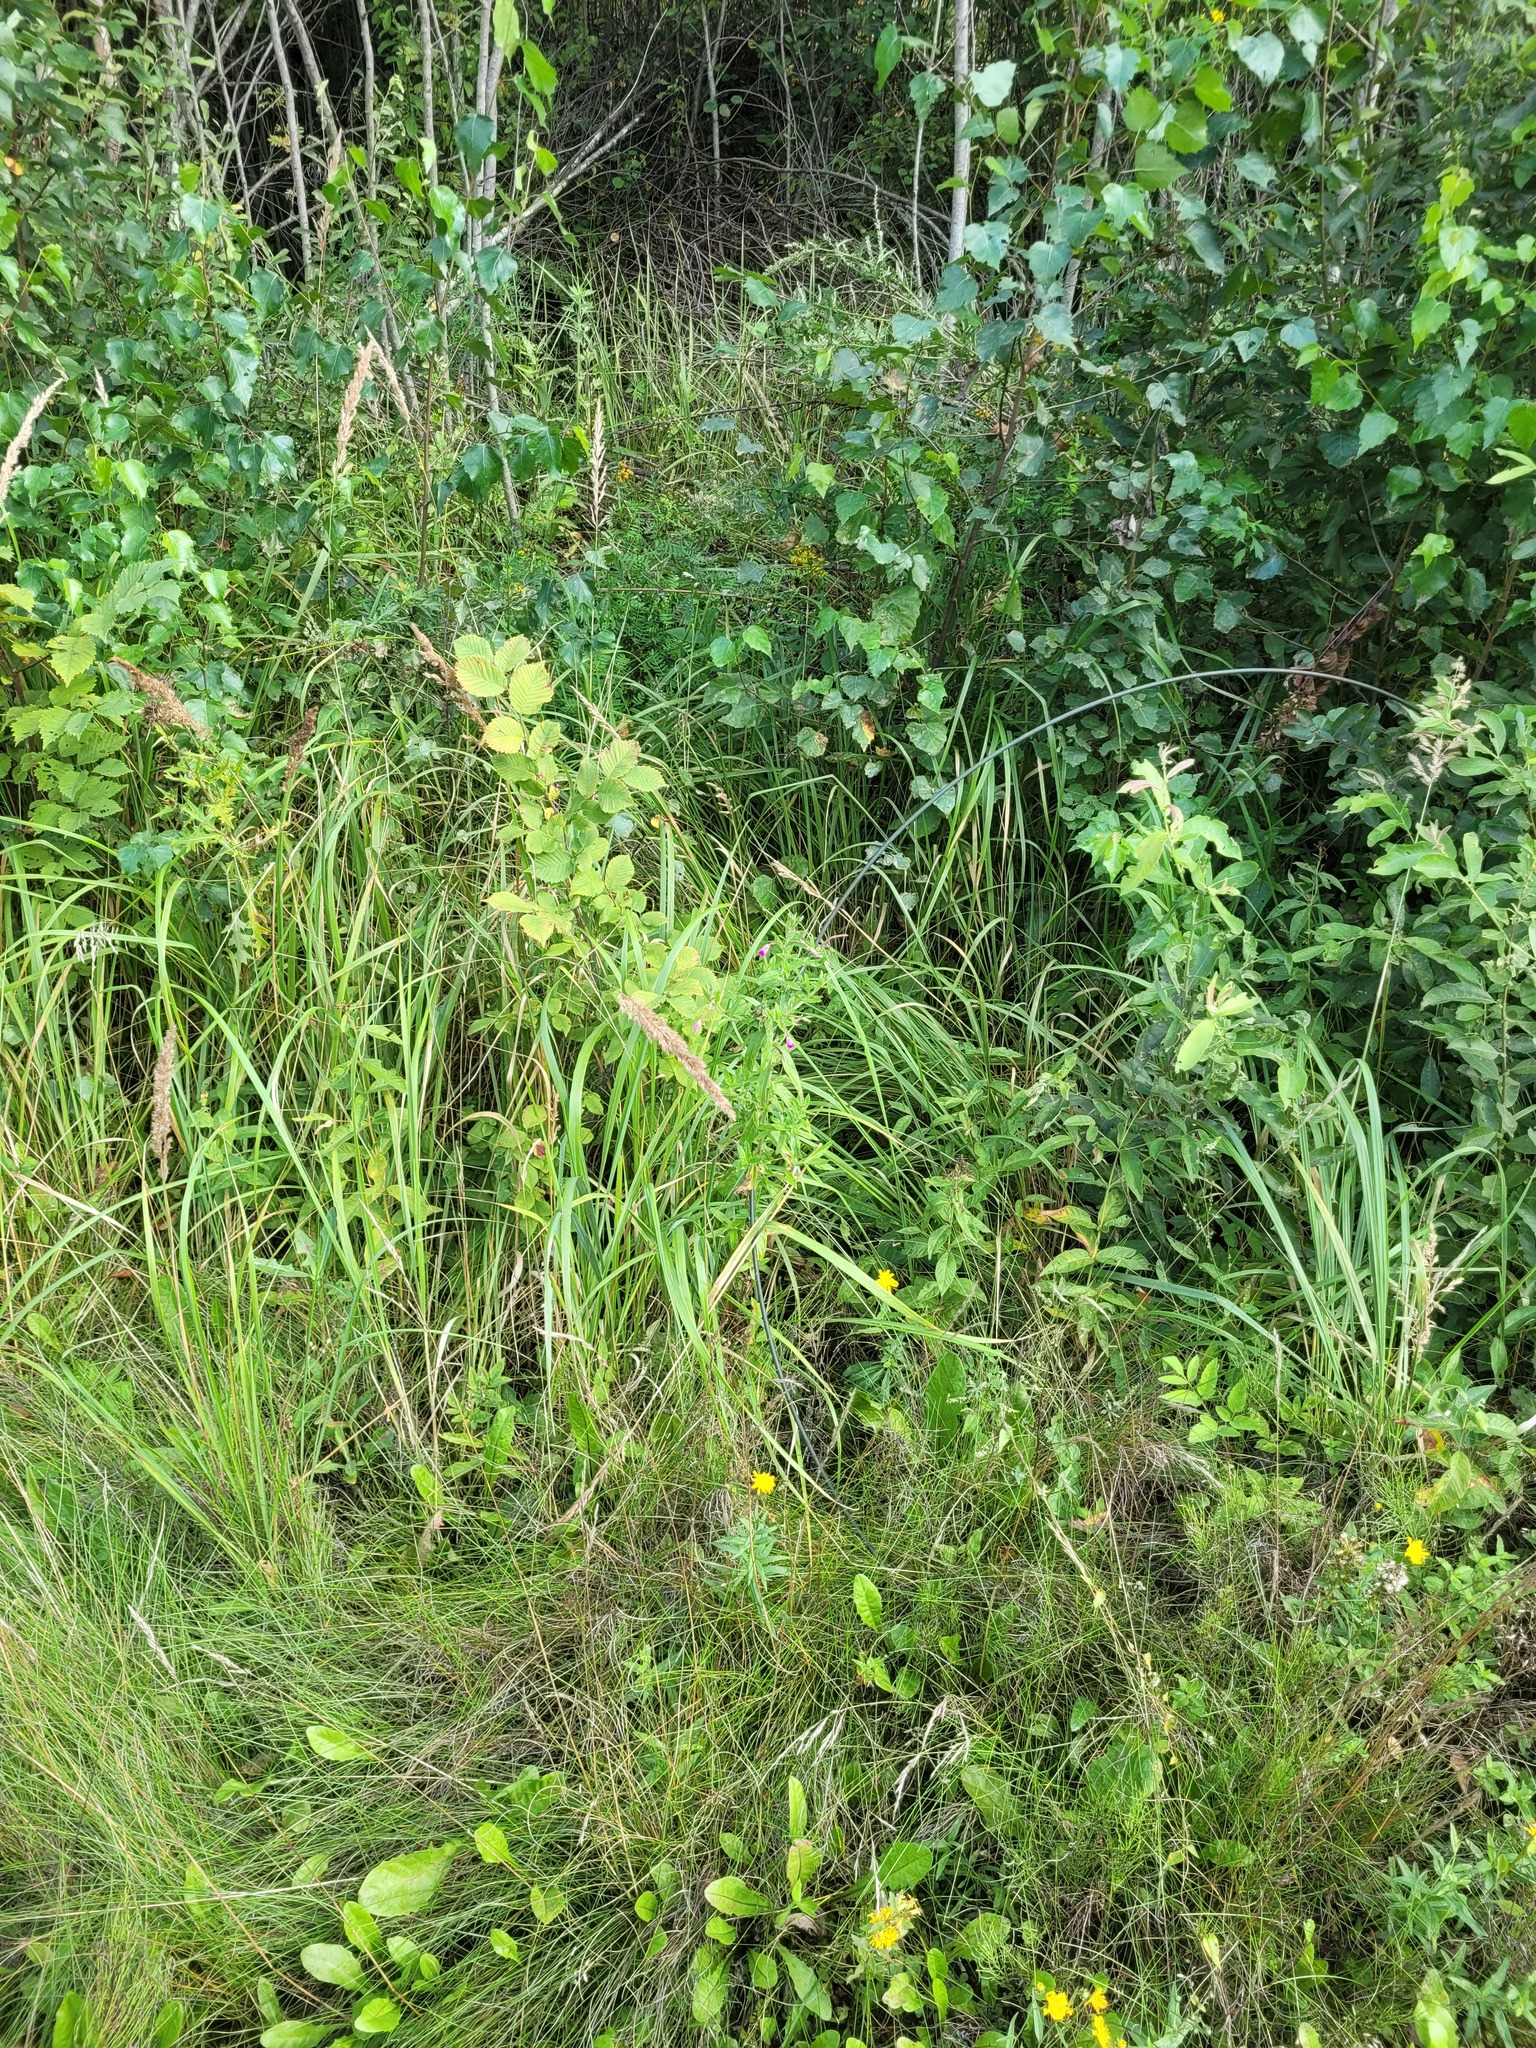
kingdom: Plantae
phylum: Tracheophyta
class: Magnoliopsida
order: Myrtales
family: Onagraceae
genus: Epilobium
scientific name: Epilobium hirsutum
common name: Great willowherb
